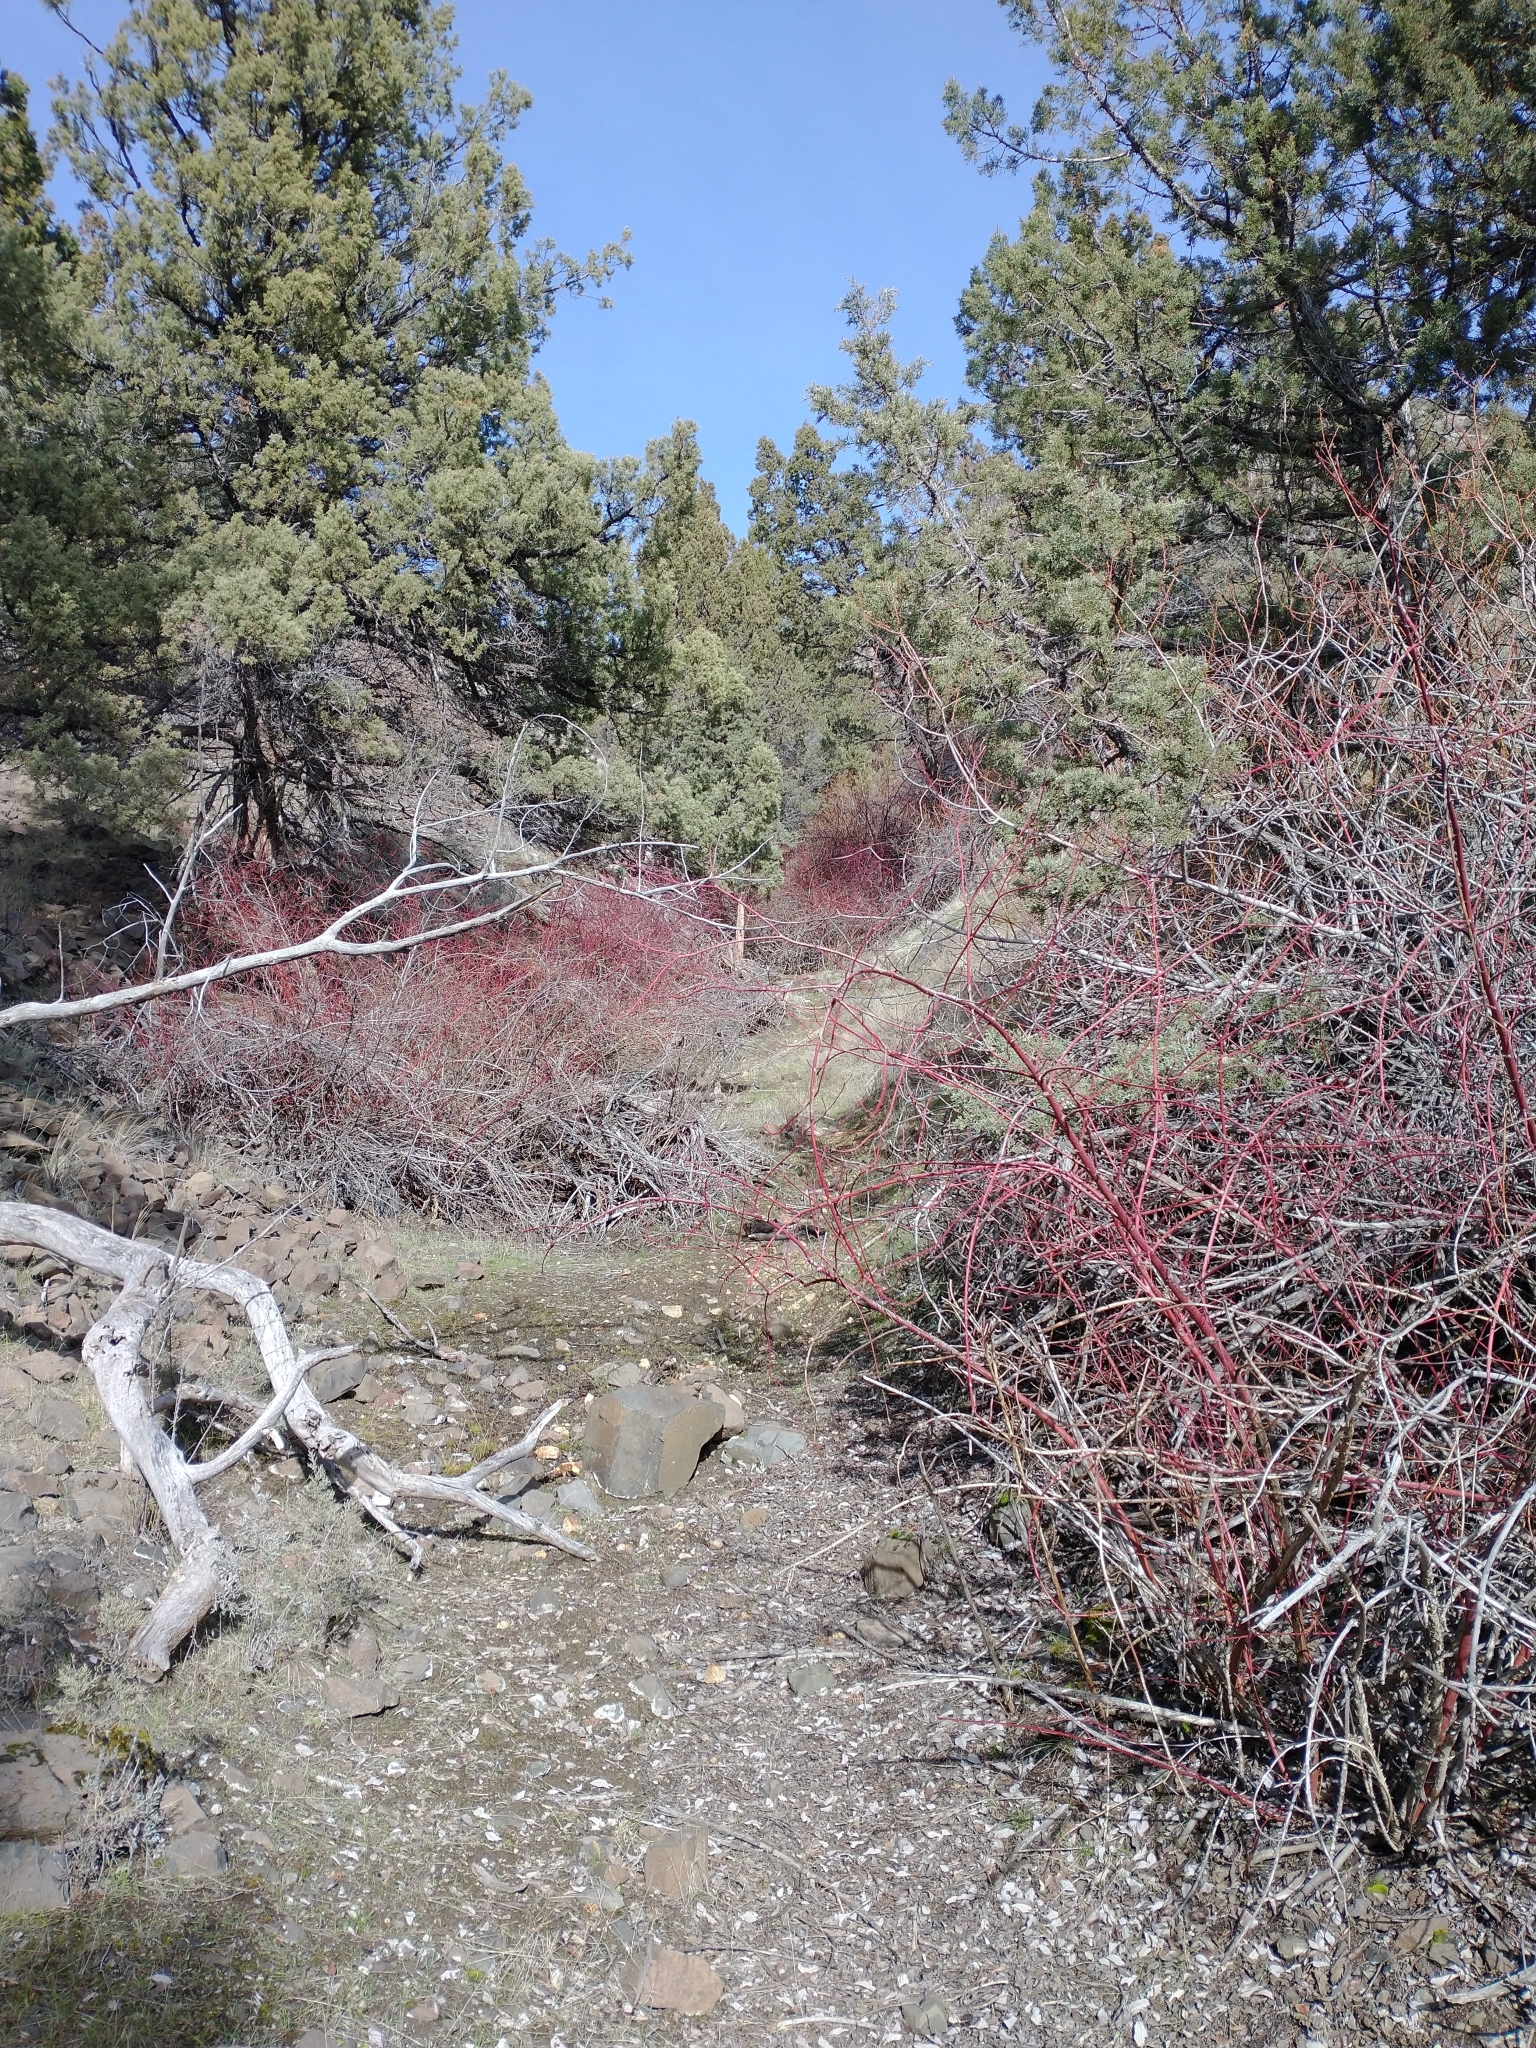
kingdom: Plantae
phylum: Tracheophyta
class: Magnoliopsida
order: Cornales
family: Cornaceae
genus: Cornus
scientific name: Cornus sericea
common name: Red-osier dogwood
